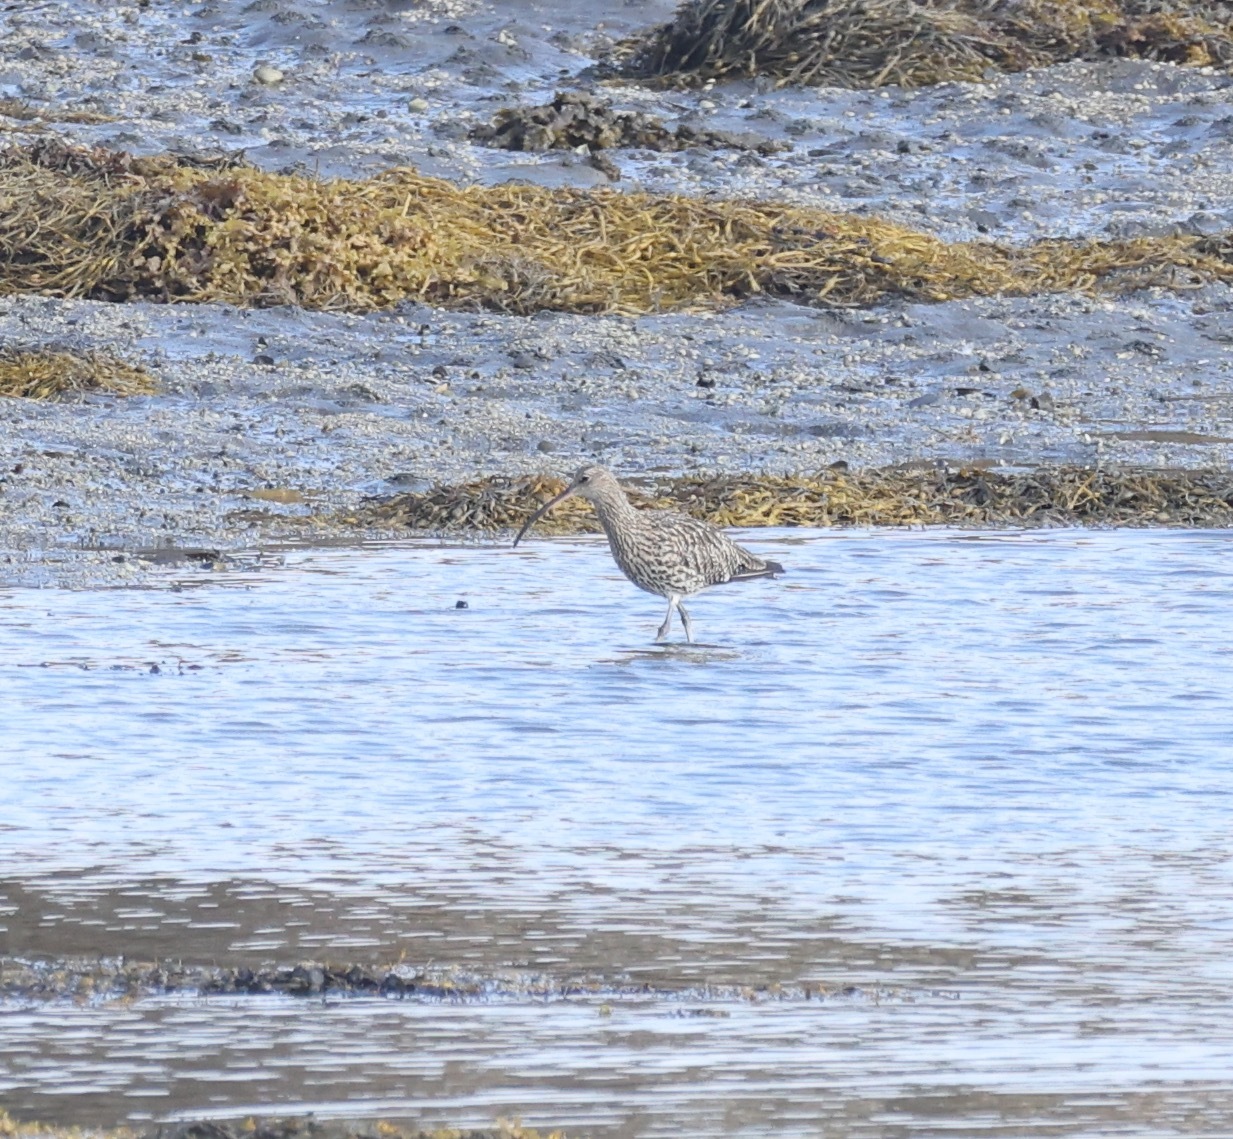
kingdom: Animalia
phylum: Chordata
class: Aves
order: Charadriiformes
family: Scolopacidae
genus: Numenius
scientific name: Numenius arquata
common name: Eurasian curlew
